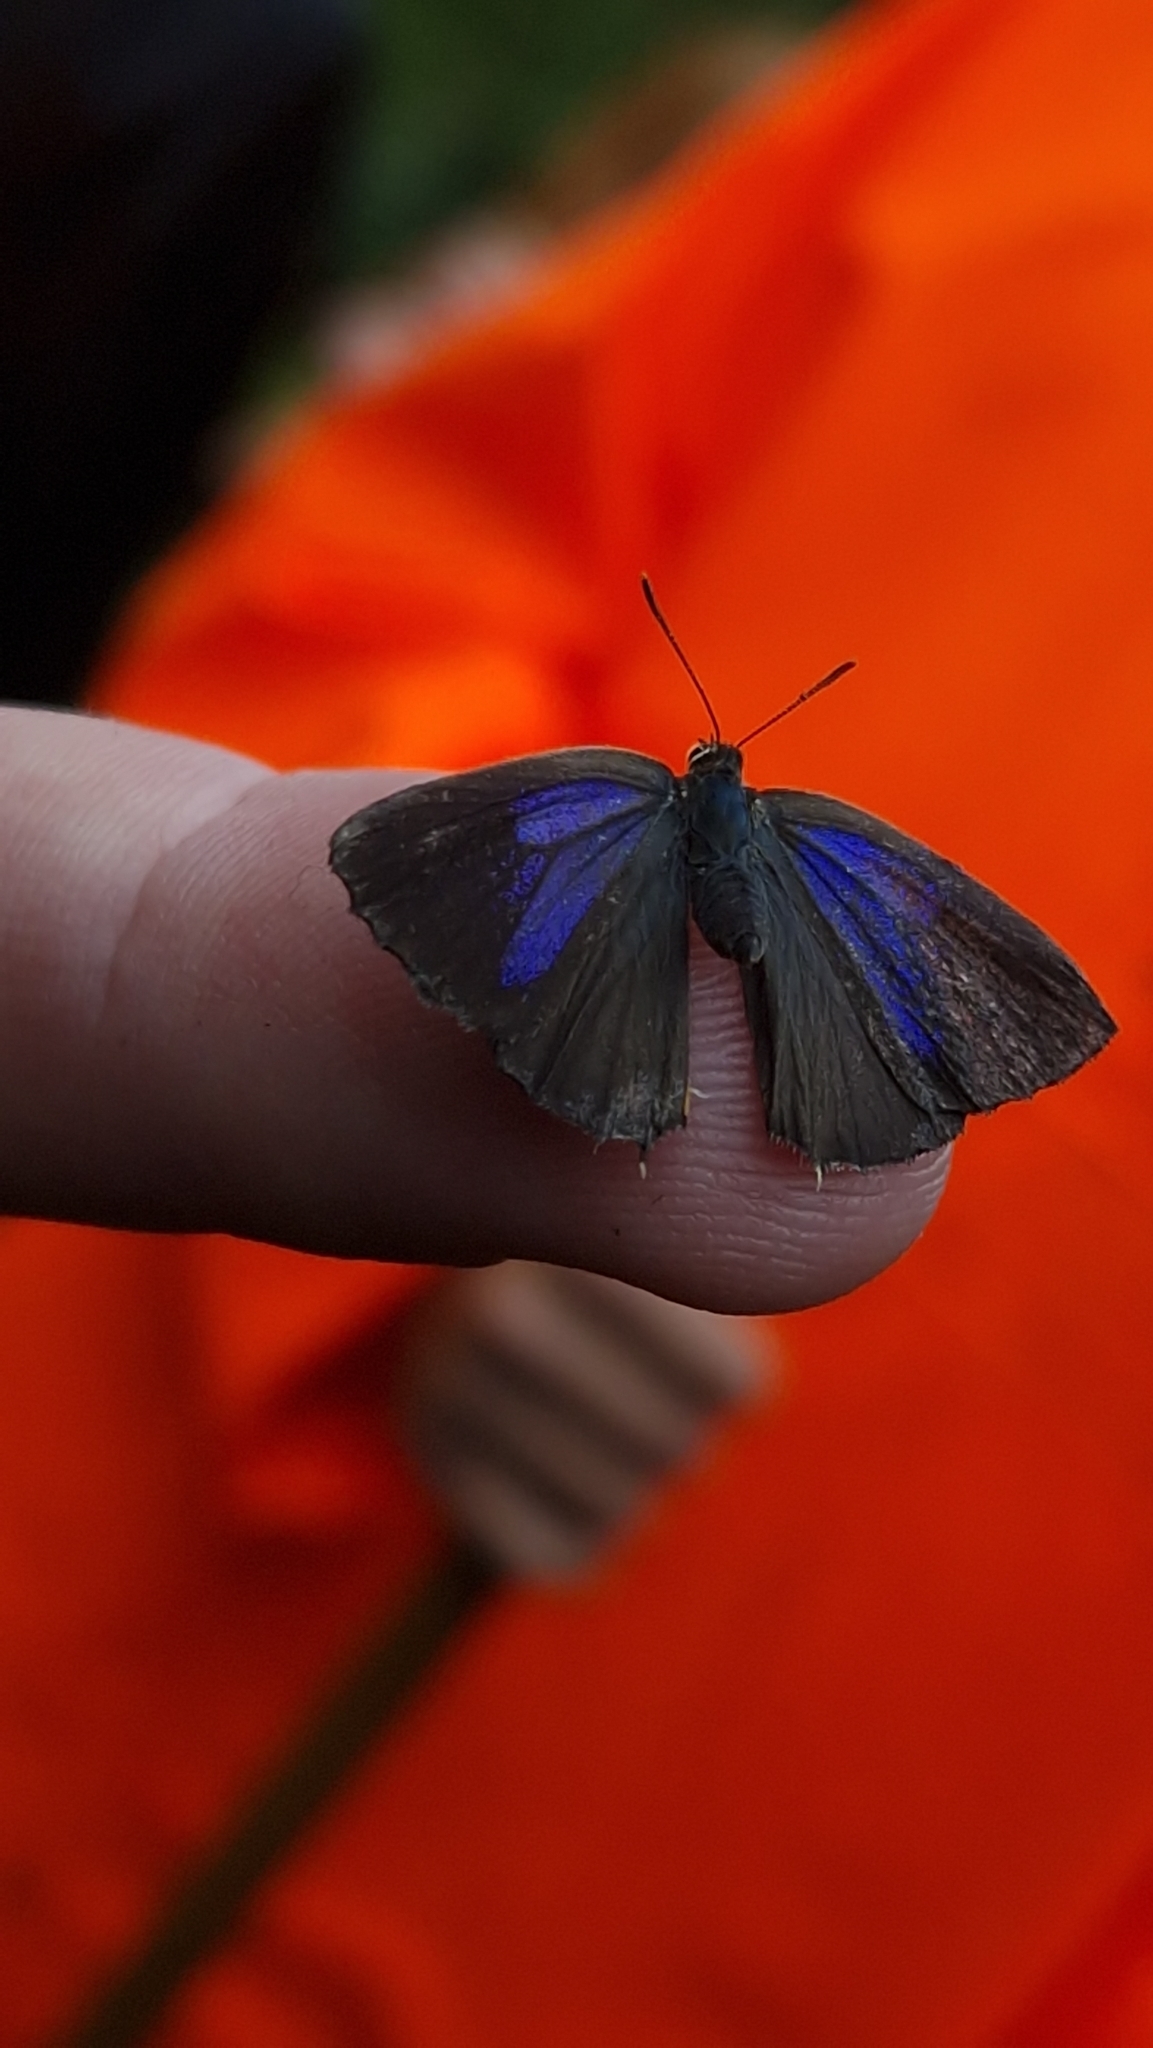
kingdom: Animalia
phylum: Arthropoda
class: Insecta
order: Lepidoptera
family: Lycaenidae
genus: Quercusia
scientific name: Quercusia quercus
